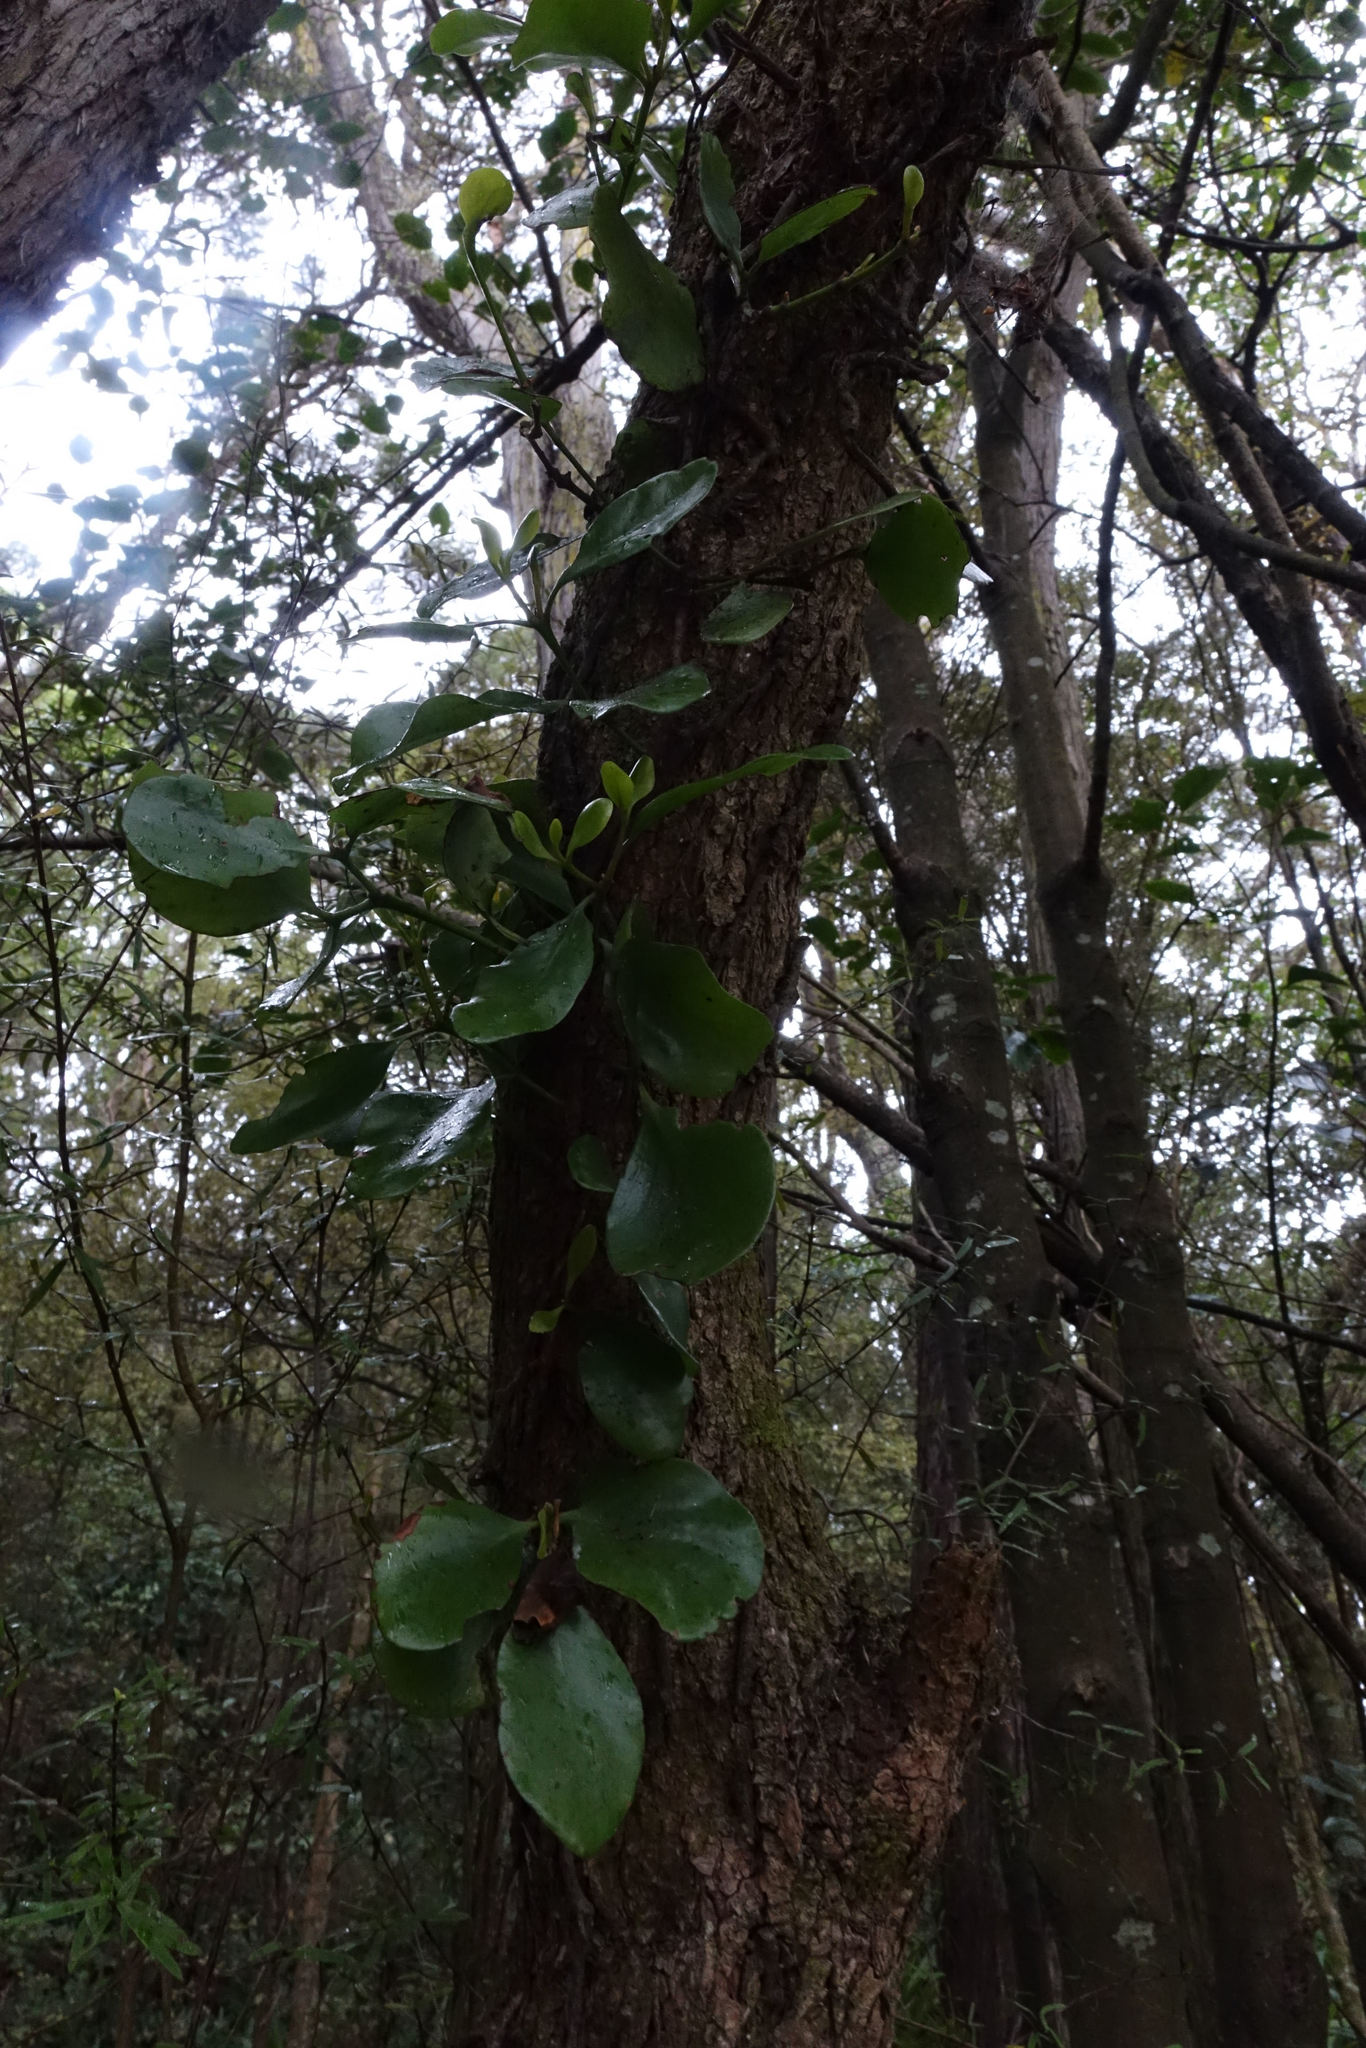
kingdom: Plantae
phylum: Tracheophyta
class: Magnoliopsida
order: Santalales
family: Loranthaceae
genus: Ileostylus
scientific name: Ileostylus micranthus
